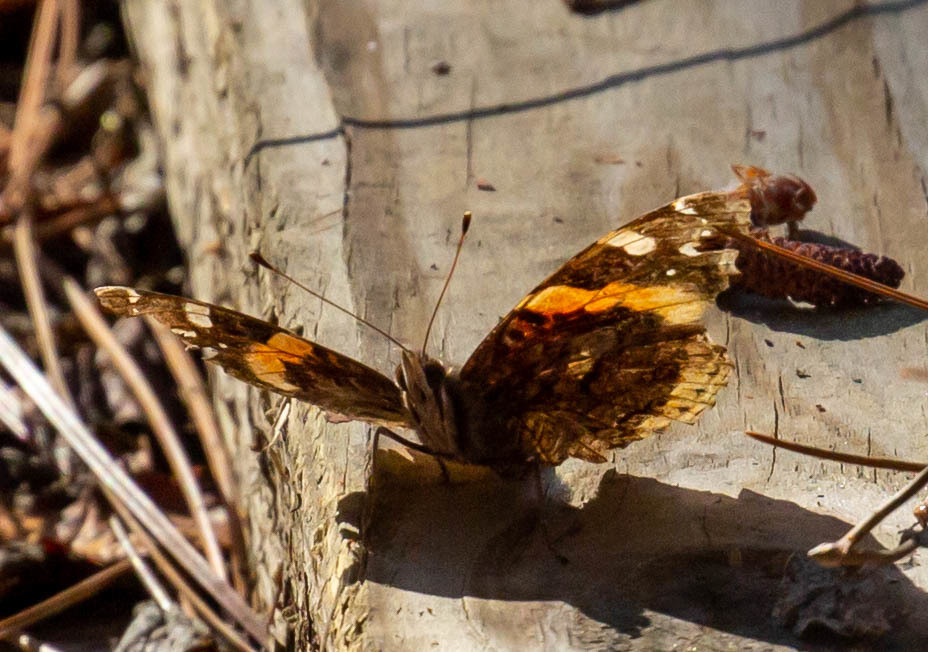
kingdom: Animalia
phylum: Arthropoda
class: Insecta
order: Lepidoptera
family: Nymphalidae
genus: Vanessa
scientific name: Vanessa atalanta
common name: Red admiral
